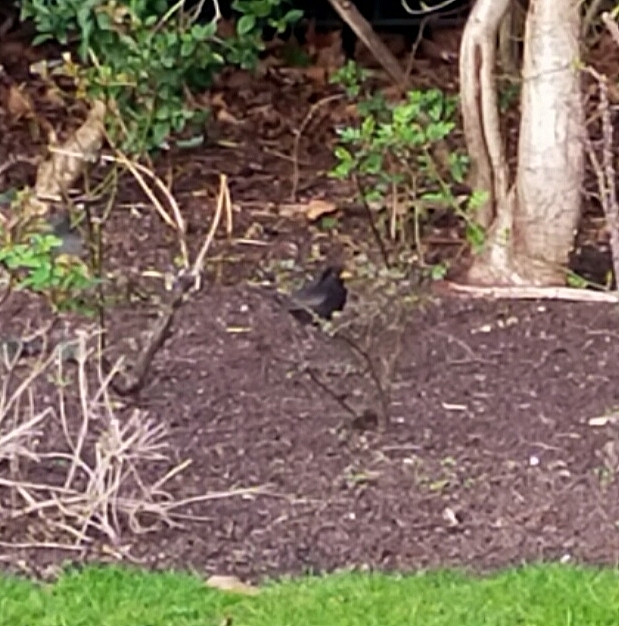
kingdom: Animalia
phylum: Chordata
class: Aves
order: Passeriformes
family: Turdidae
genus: Turdus
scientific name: Turdus merula
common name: Common blackbird
